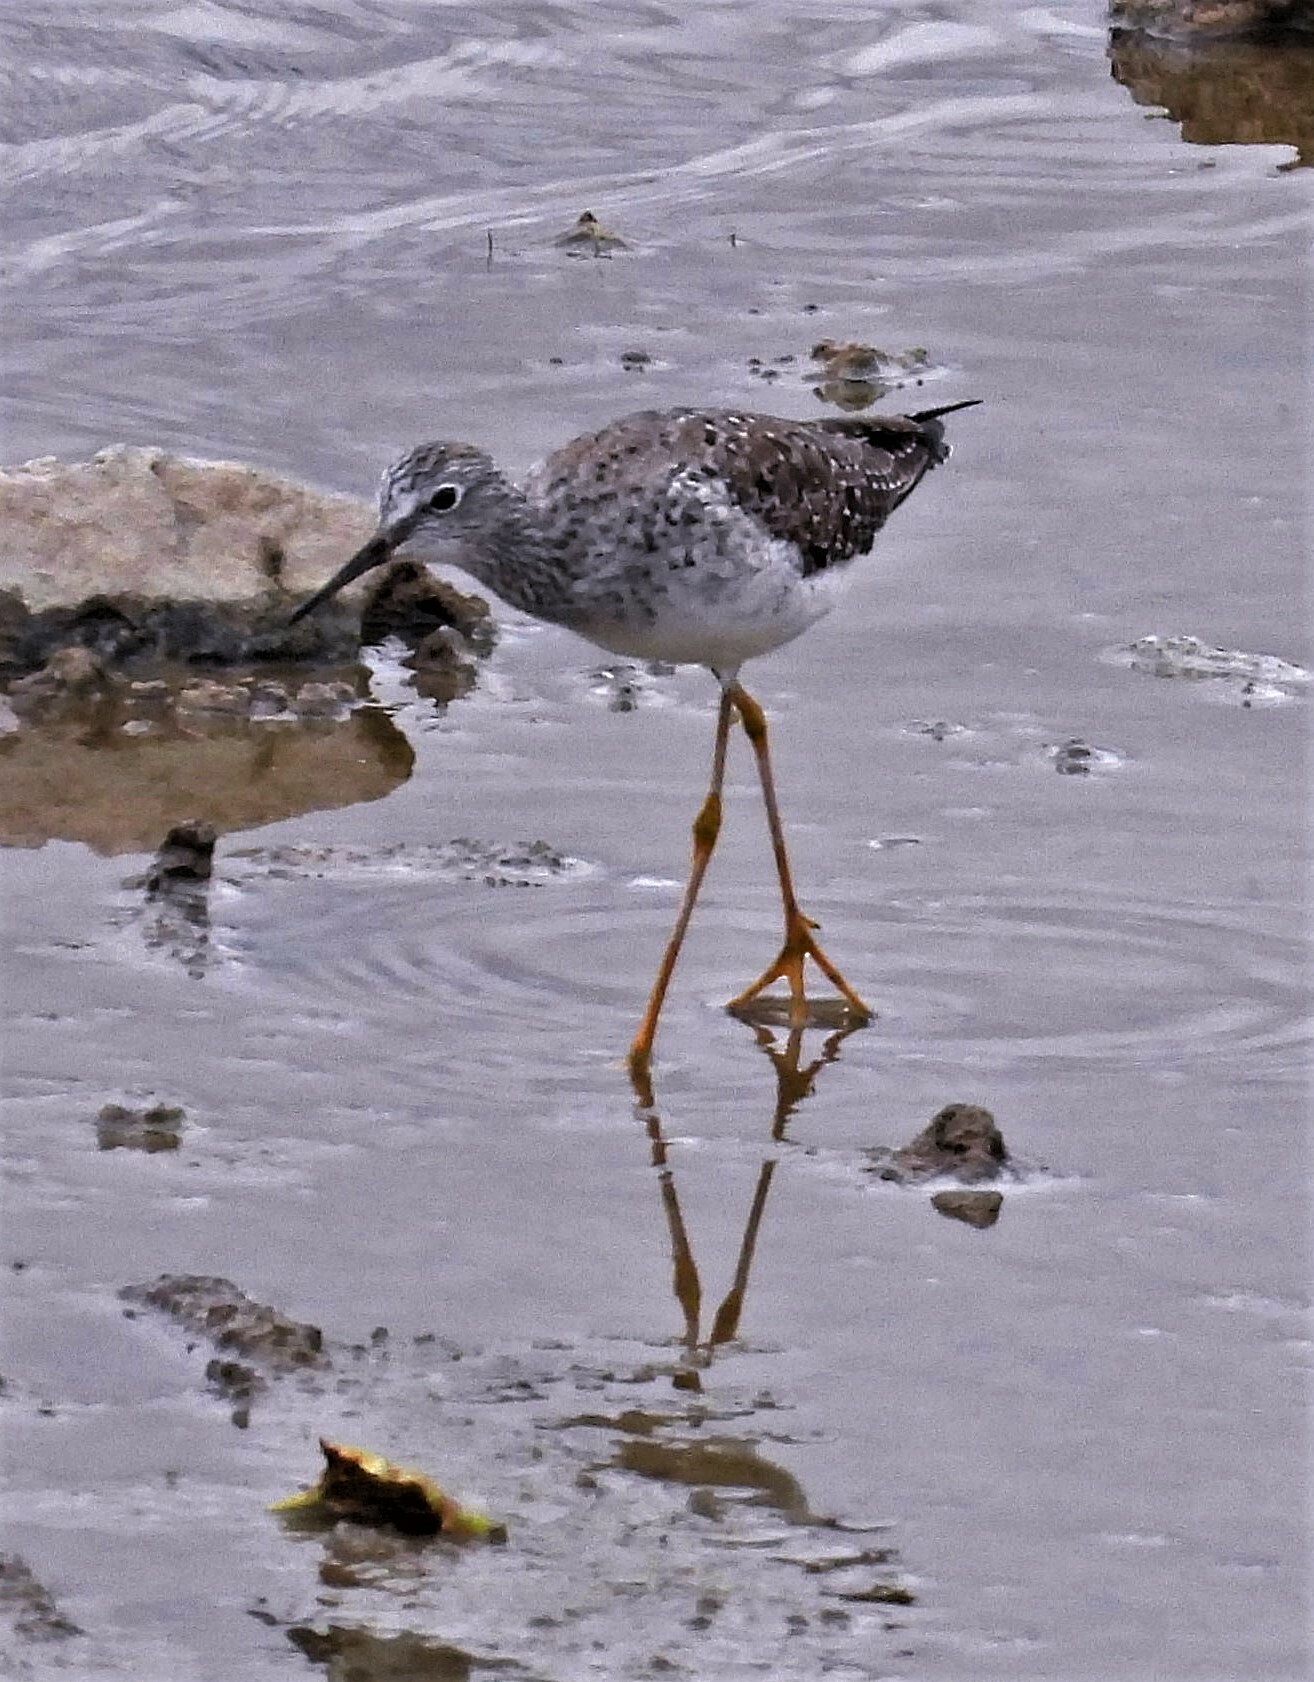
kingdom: Animalia
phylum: Chordata
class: Aves
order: Charadriiformes
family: Scolopacidae
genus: Tringa
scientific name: Tringa flavipes
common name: Lesser yellowlegs
